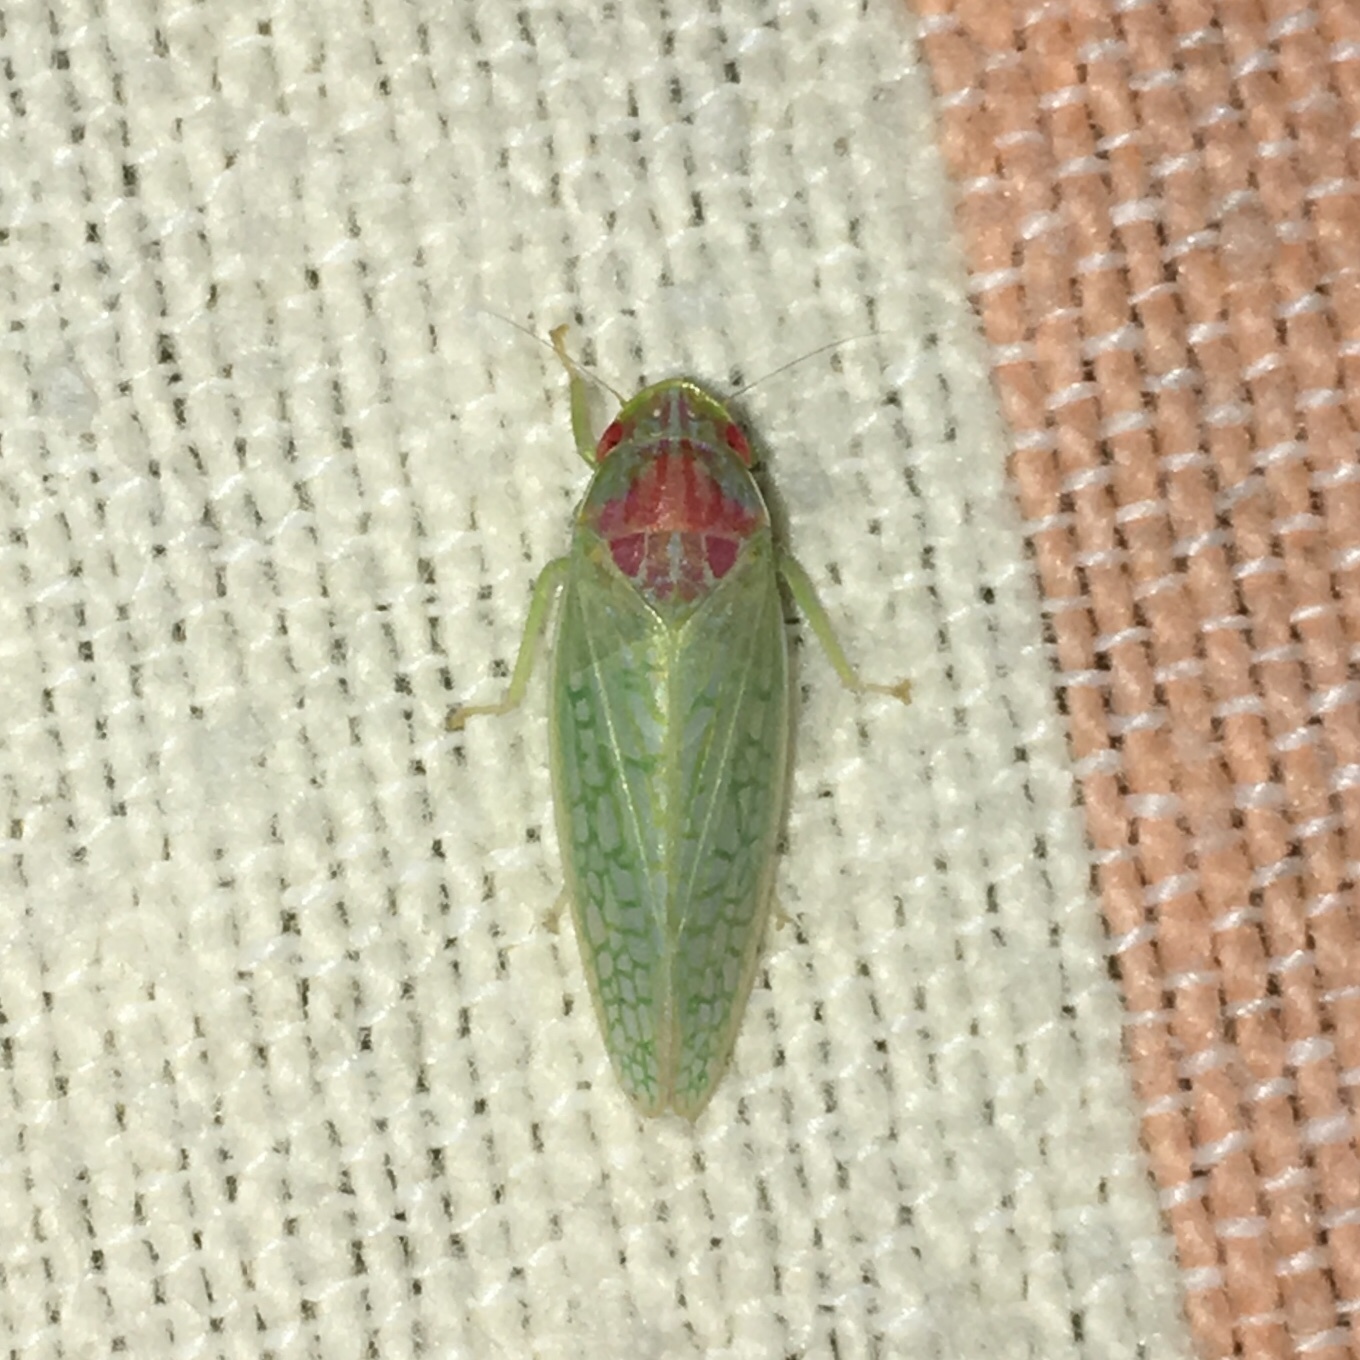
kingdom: Animalia
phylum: Arthropoda
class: Insecta
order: Hemiptera
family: Cicadellidae
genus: Gyponana
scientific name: Gyponana octolineata
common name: Eight-lined leafhopper
